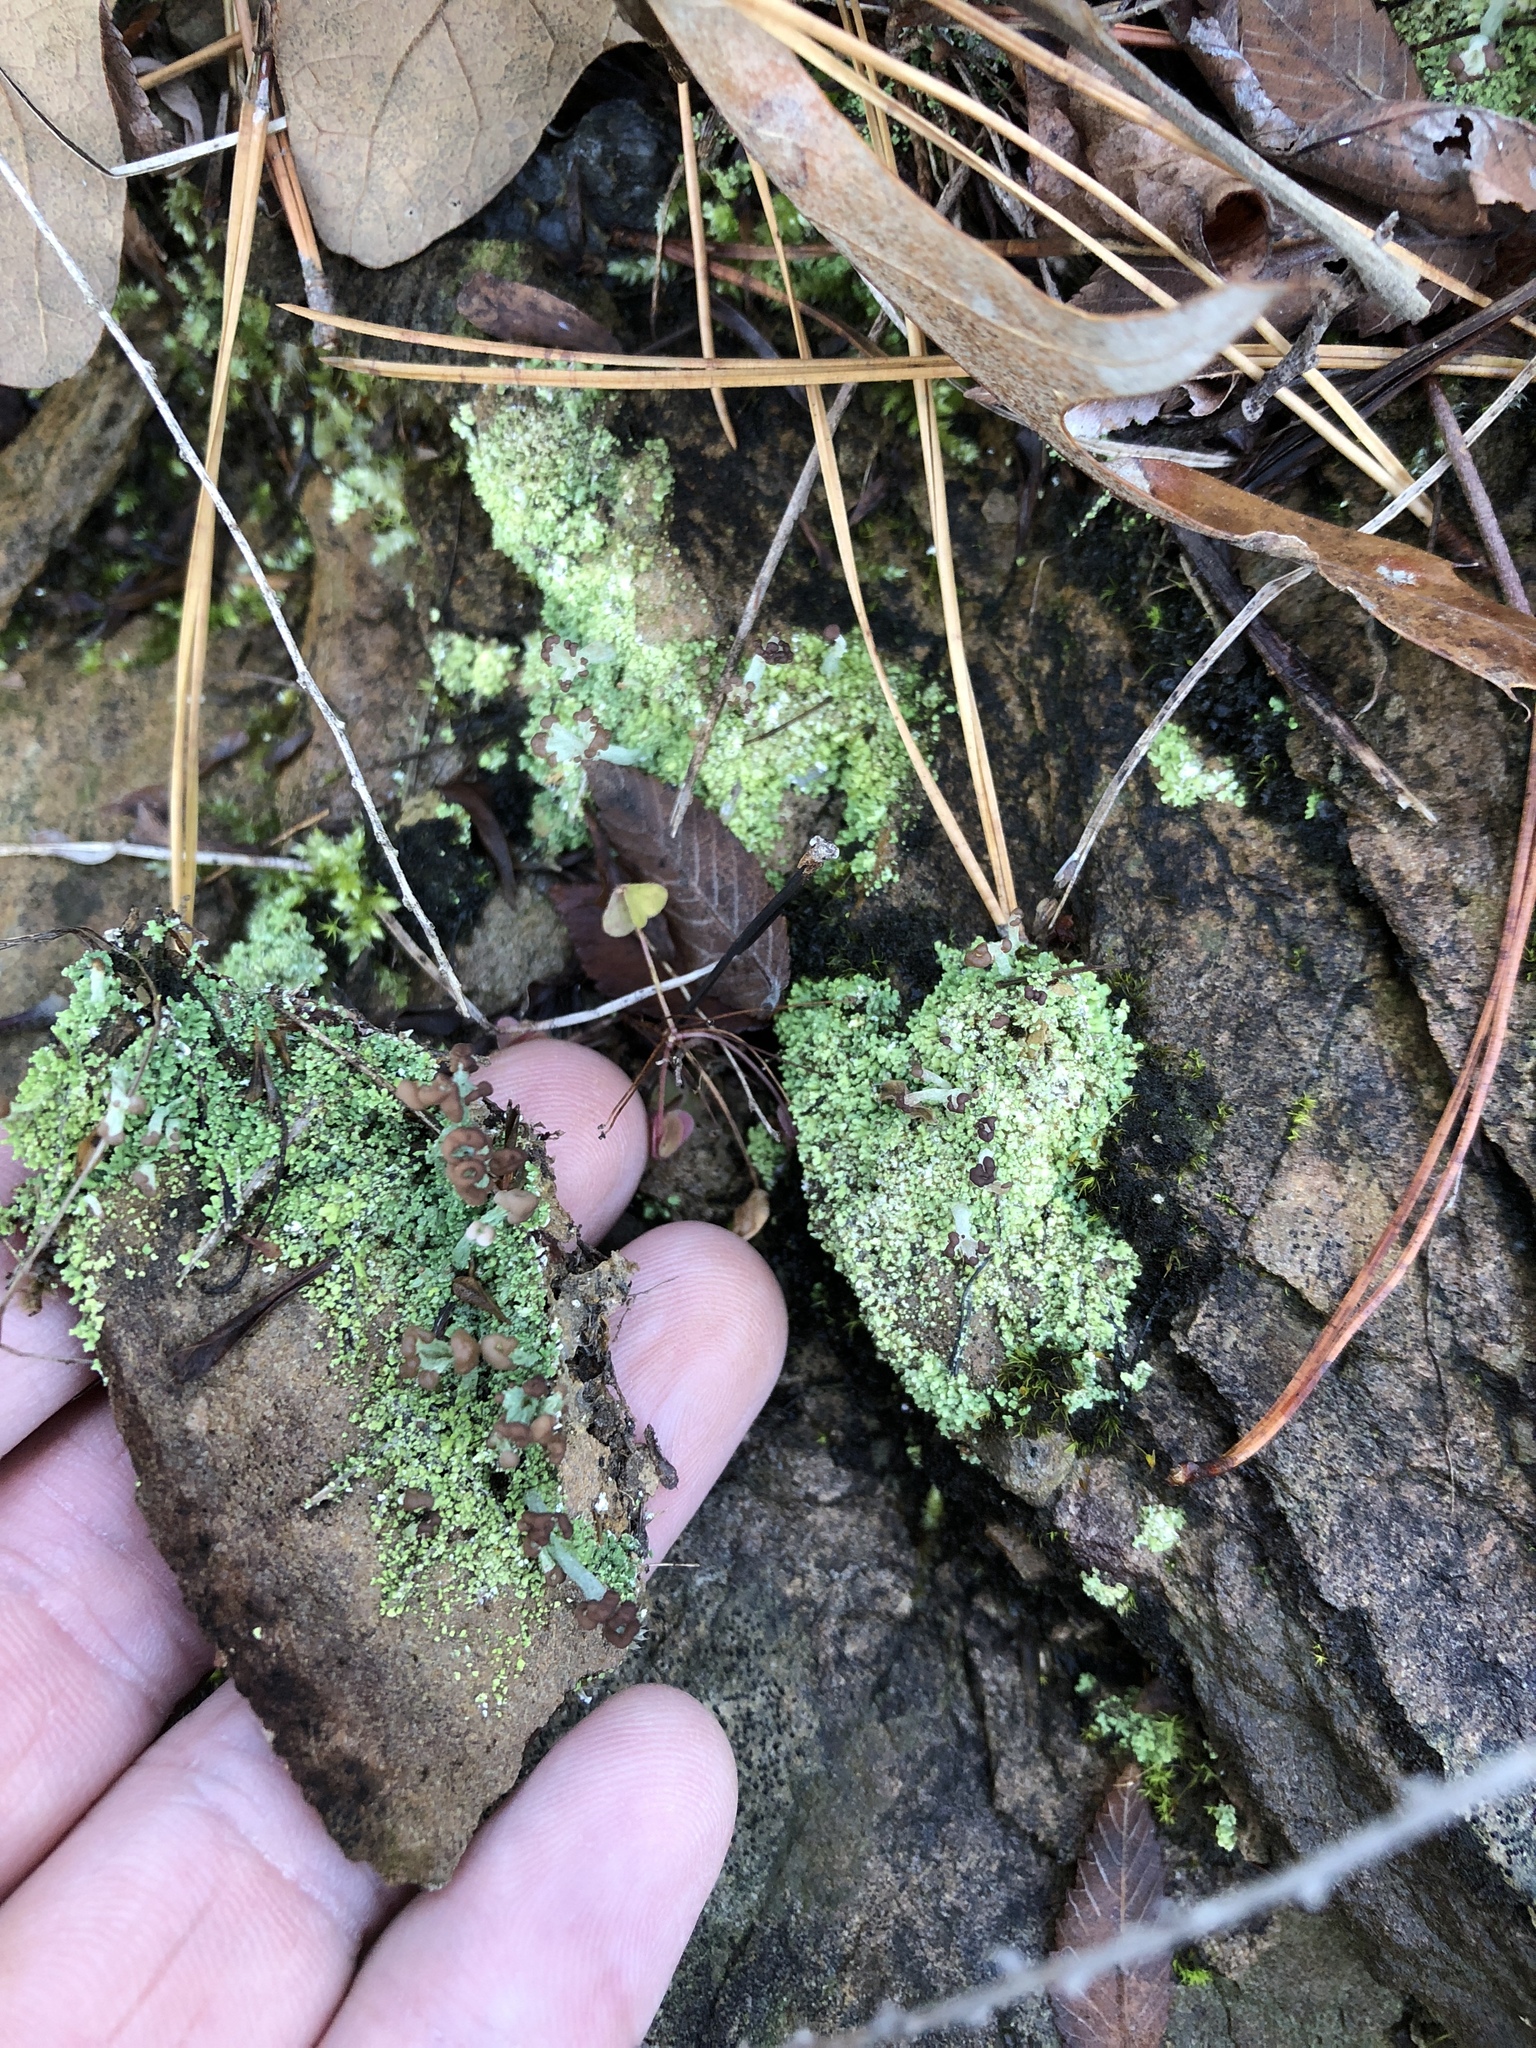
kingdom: Fungi
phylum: Ascomycota
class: Lecanoromycetes
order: Lecanorales
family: Cladoniaceae
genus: Cladonia
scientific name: Cladonia peziziformis
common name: Cup lichen
